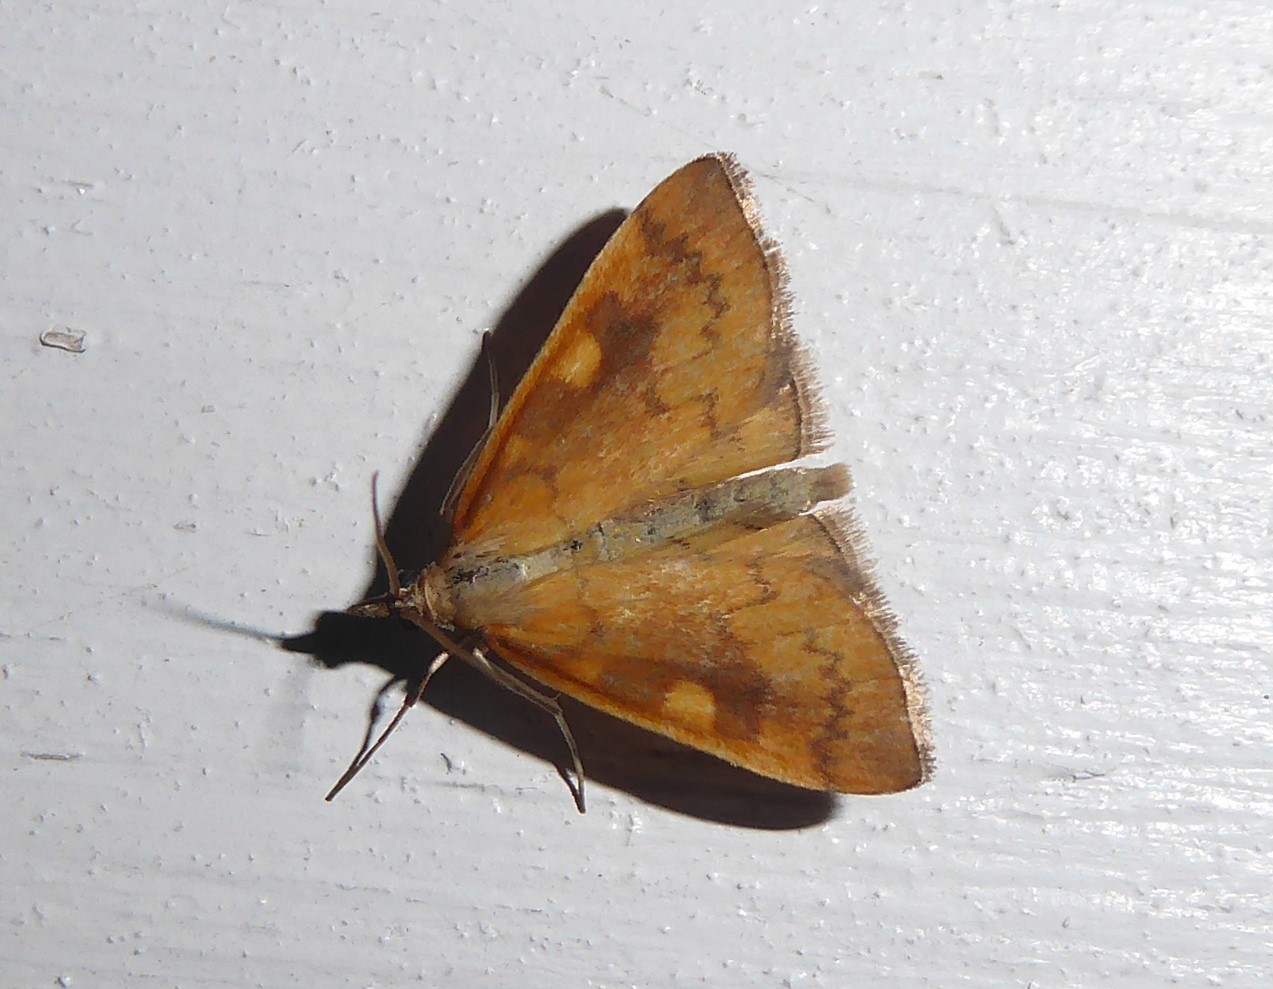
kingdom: Animalia
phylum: Arthropoda
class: Insecta
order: Lepidoptera
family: Crambidae
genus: Udea
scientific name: Udea Mnesictena flavidalis
